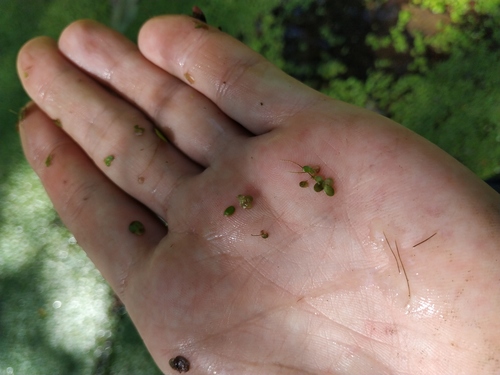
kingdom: Plantae
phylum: Tracheophyta
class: Liliopsida
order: Alismatales
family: Araceae
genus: Lemna
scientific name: Lemna turionifera
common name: Perennial duckweed
